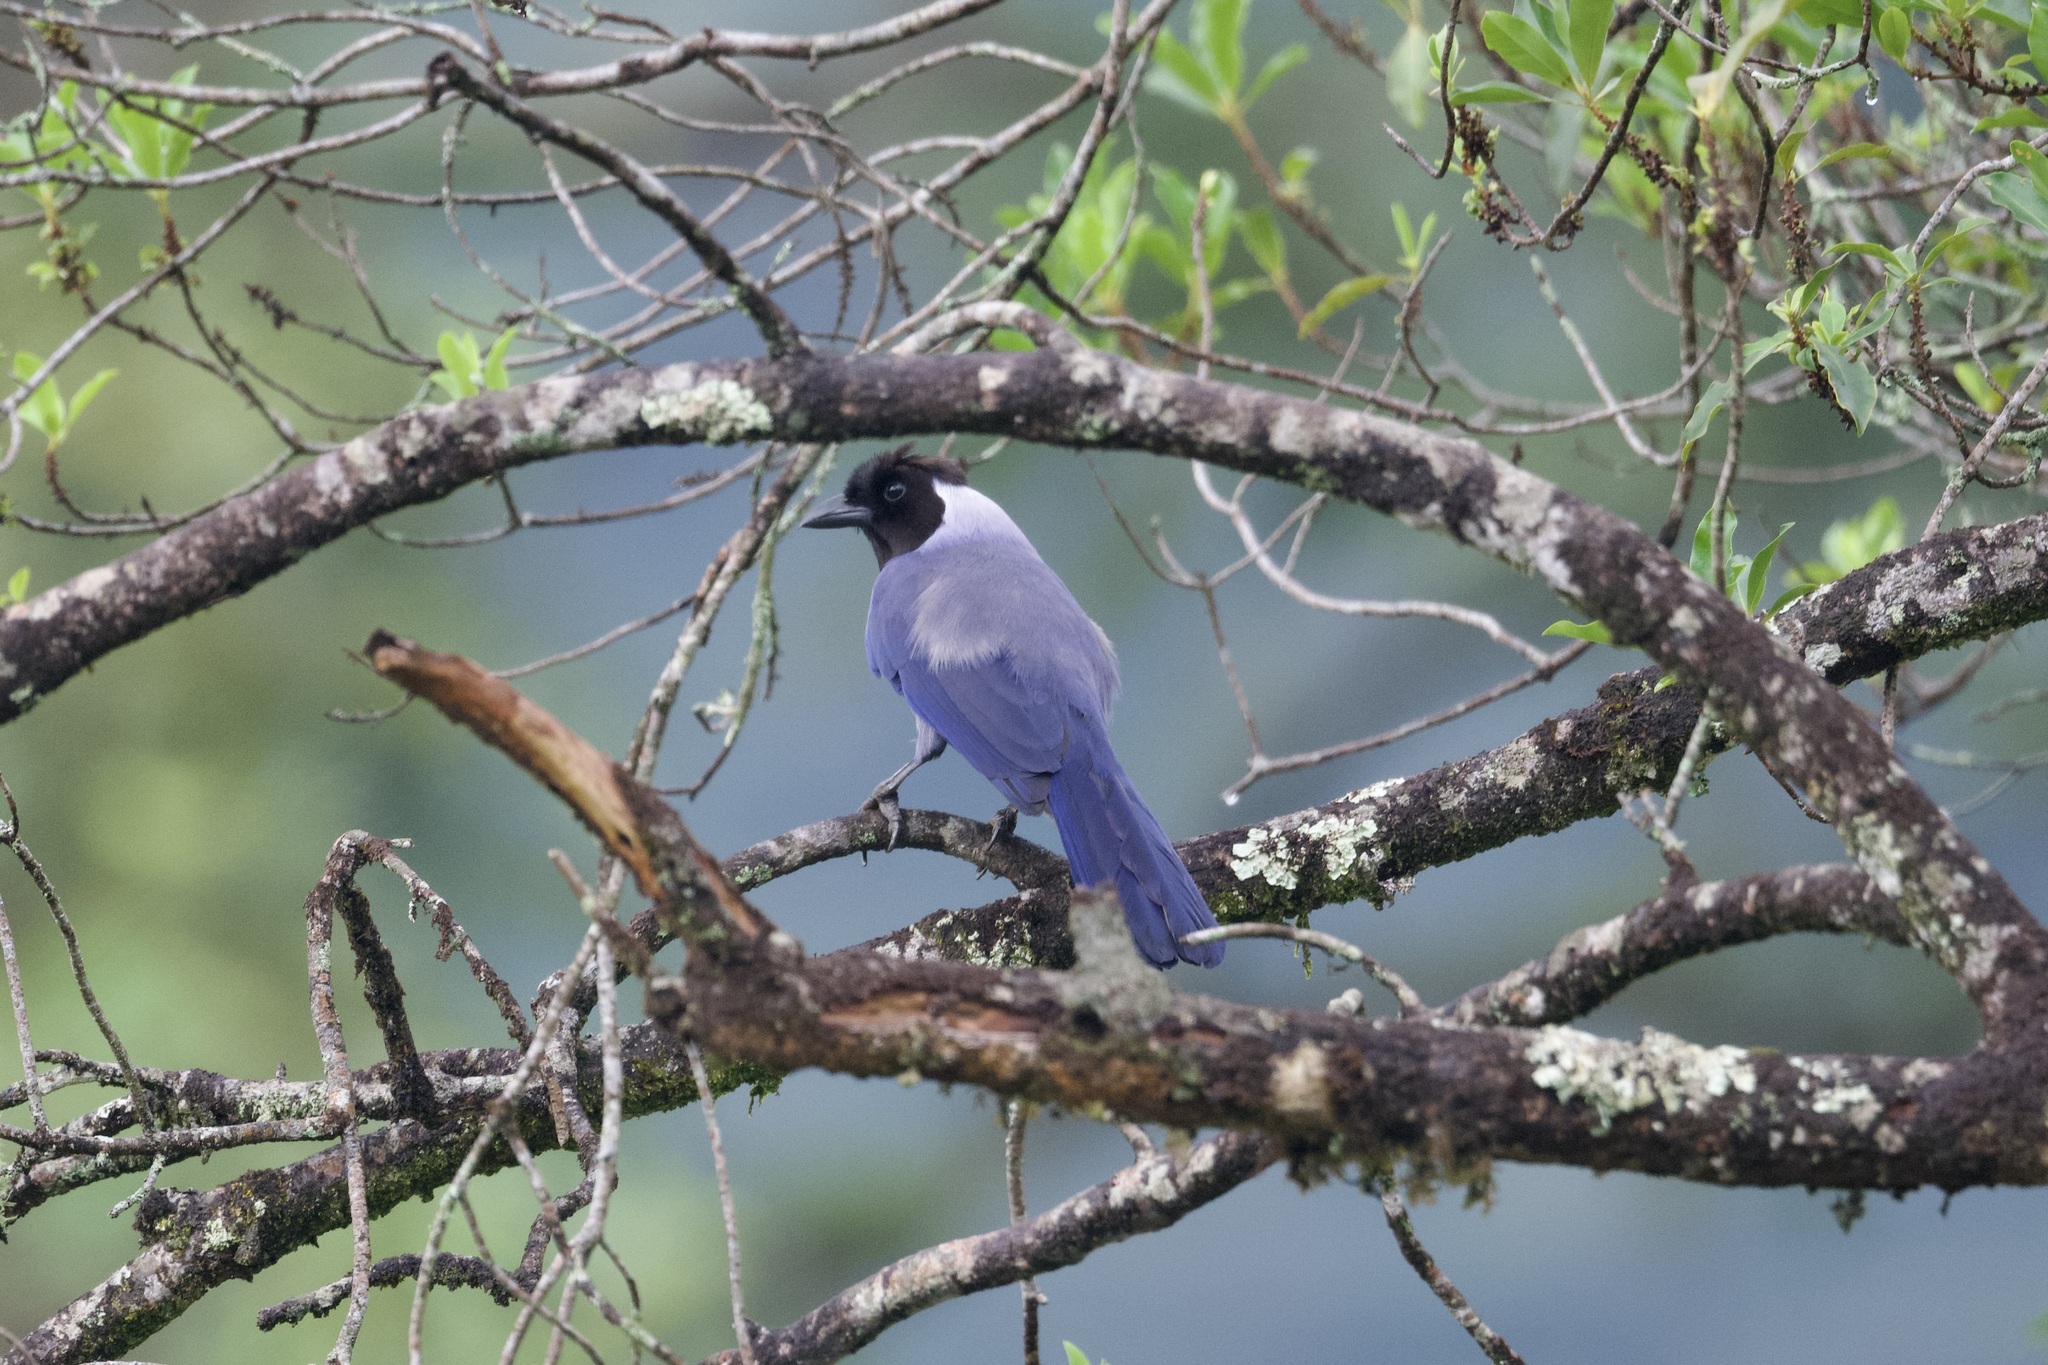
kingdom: Animalia
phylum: Chordata
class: Aves
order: Passeriformes
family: Corvidae
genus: Cyanocorax
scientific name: Cyanocorax violaceus
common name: Violaceous jay
